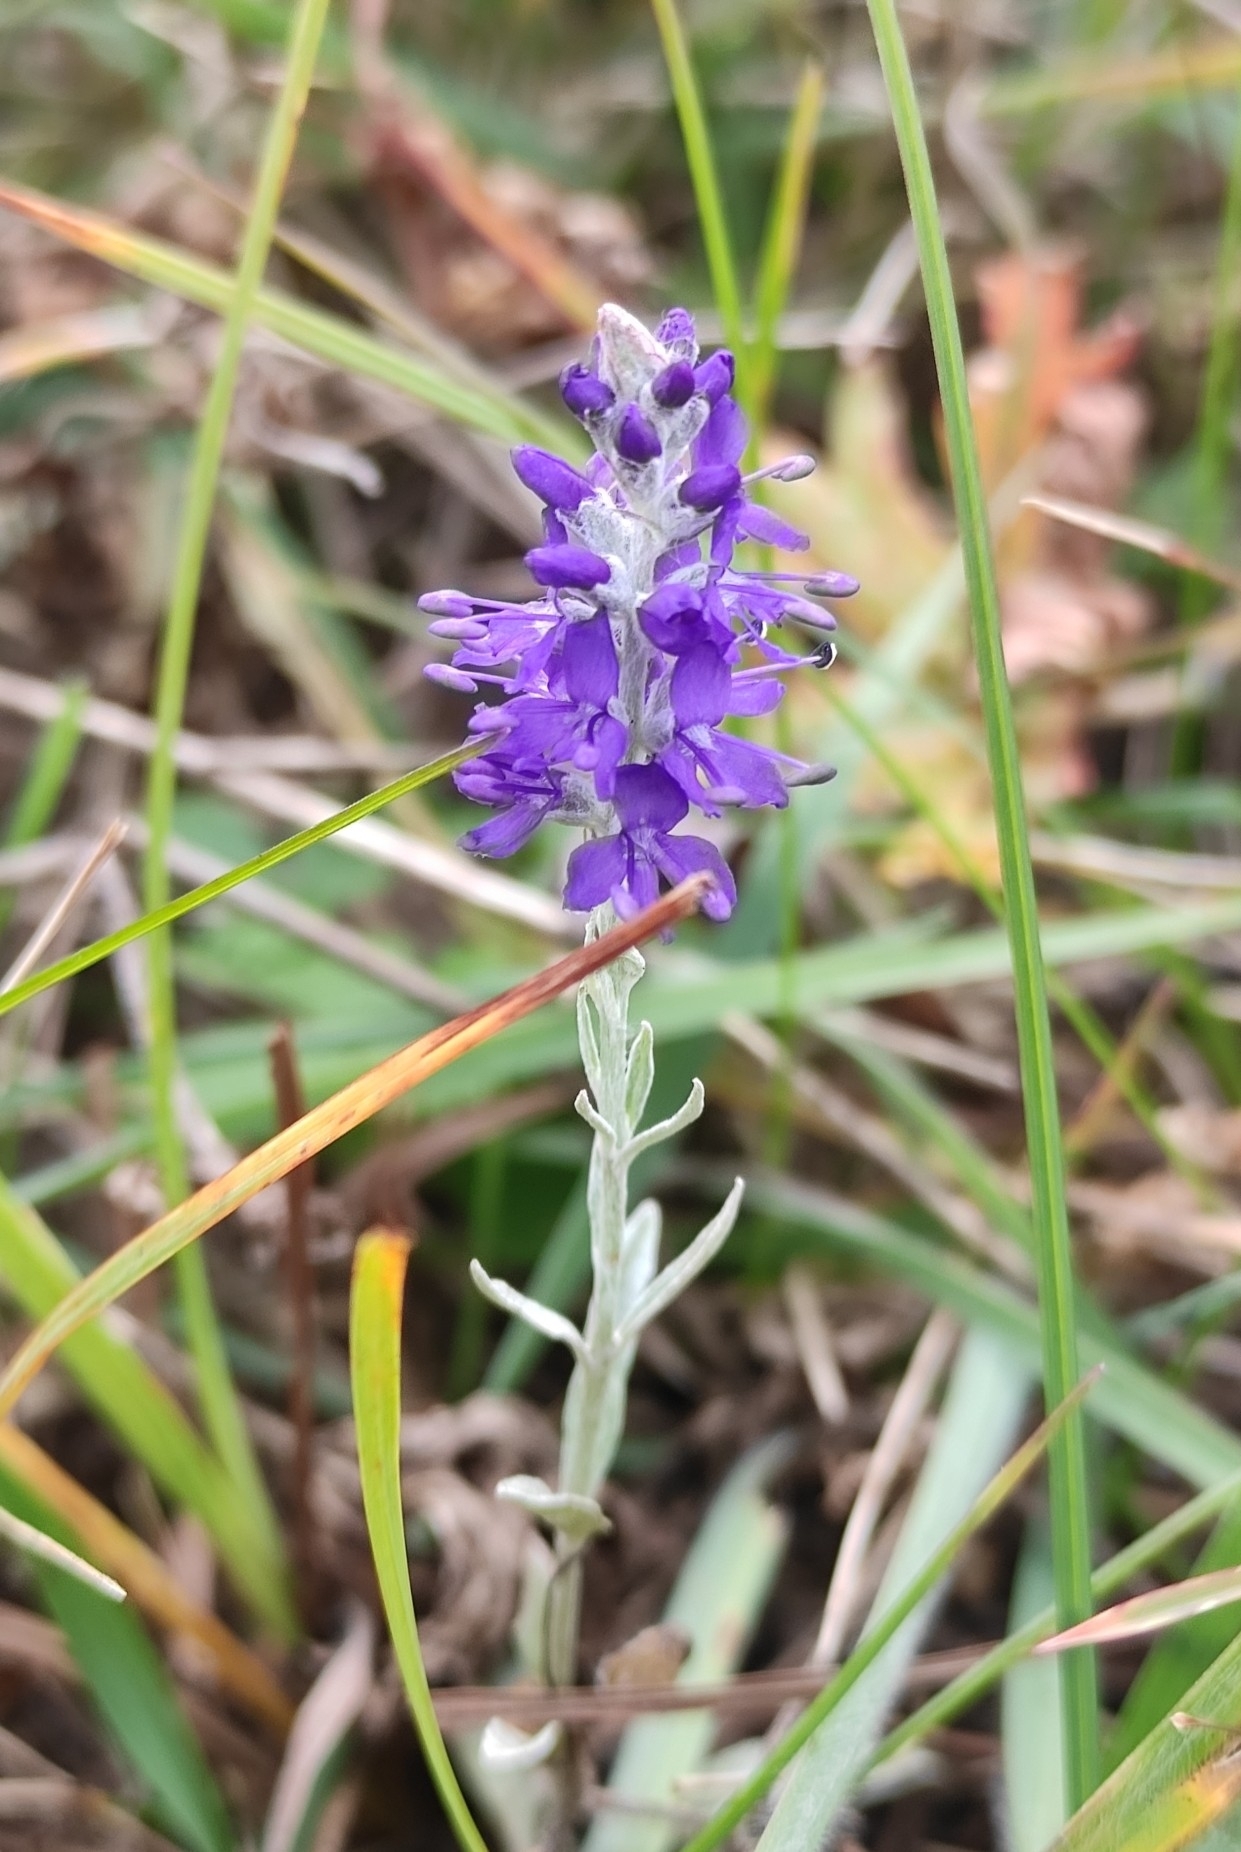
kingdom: Plantae
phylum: Tracheophyta
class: Magnoliopsida
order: Lamiales
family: Plantaginaceae
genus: Veronica
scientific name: Veronica incana
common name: Silver speedwell
